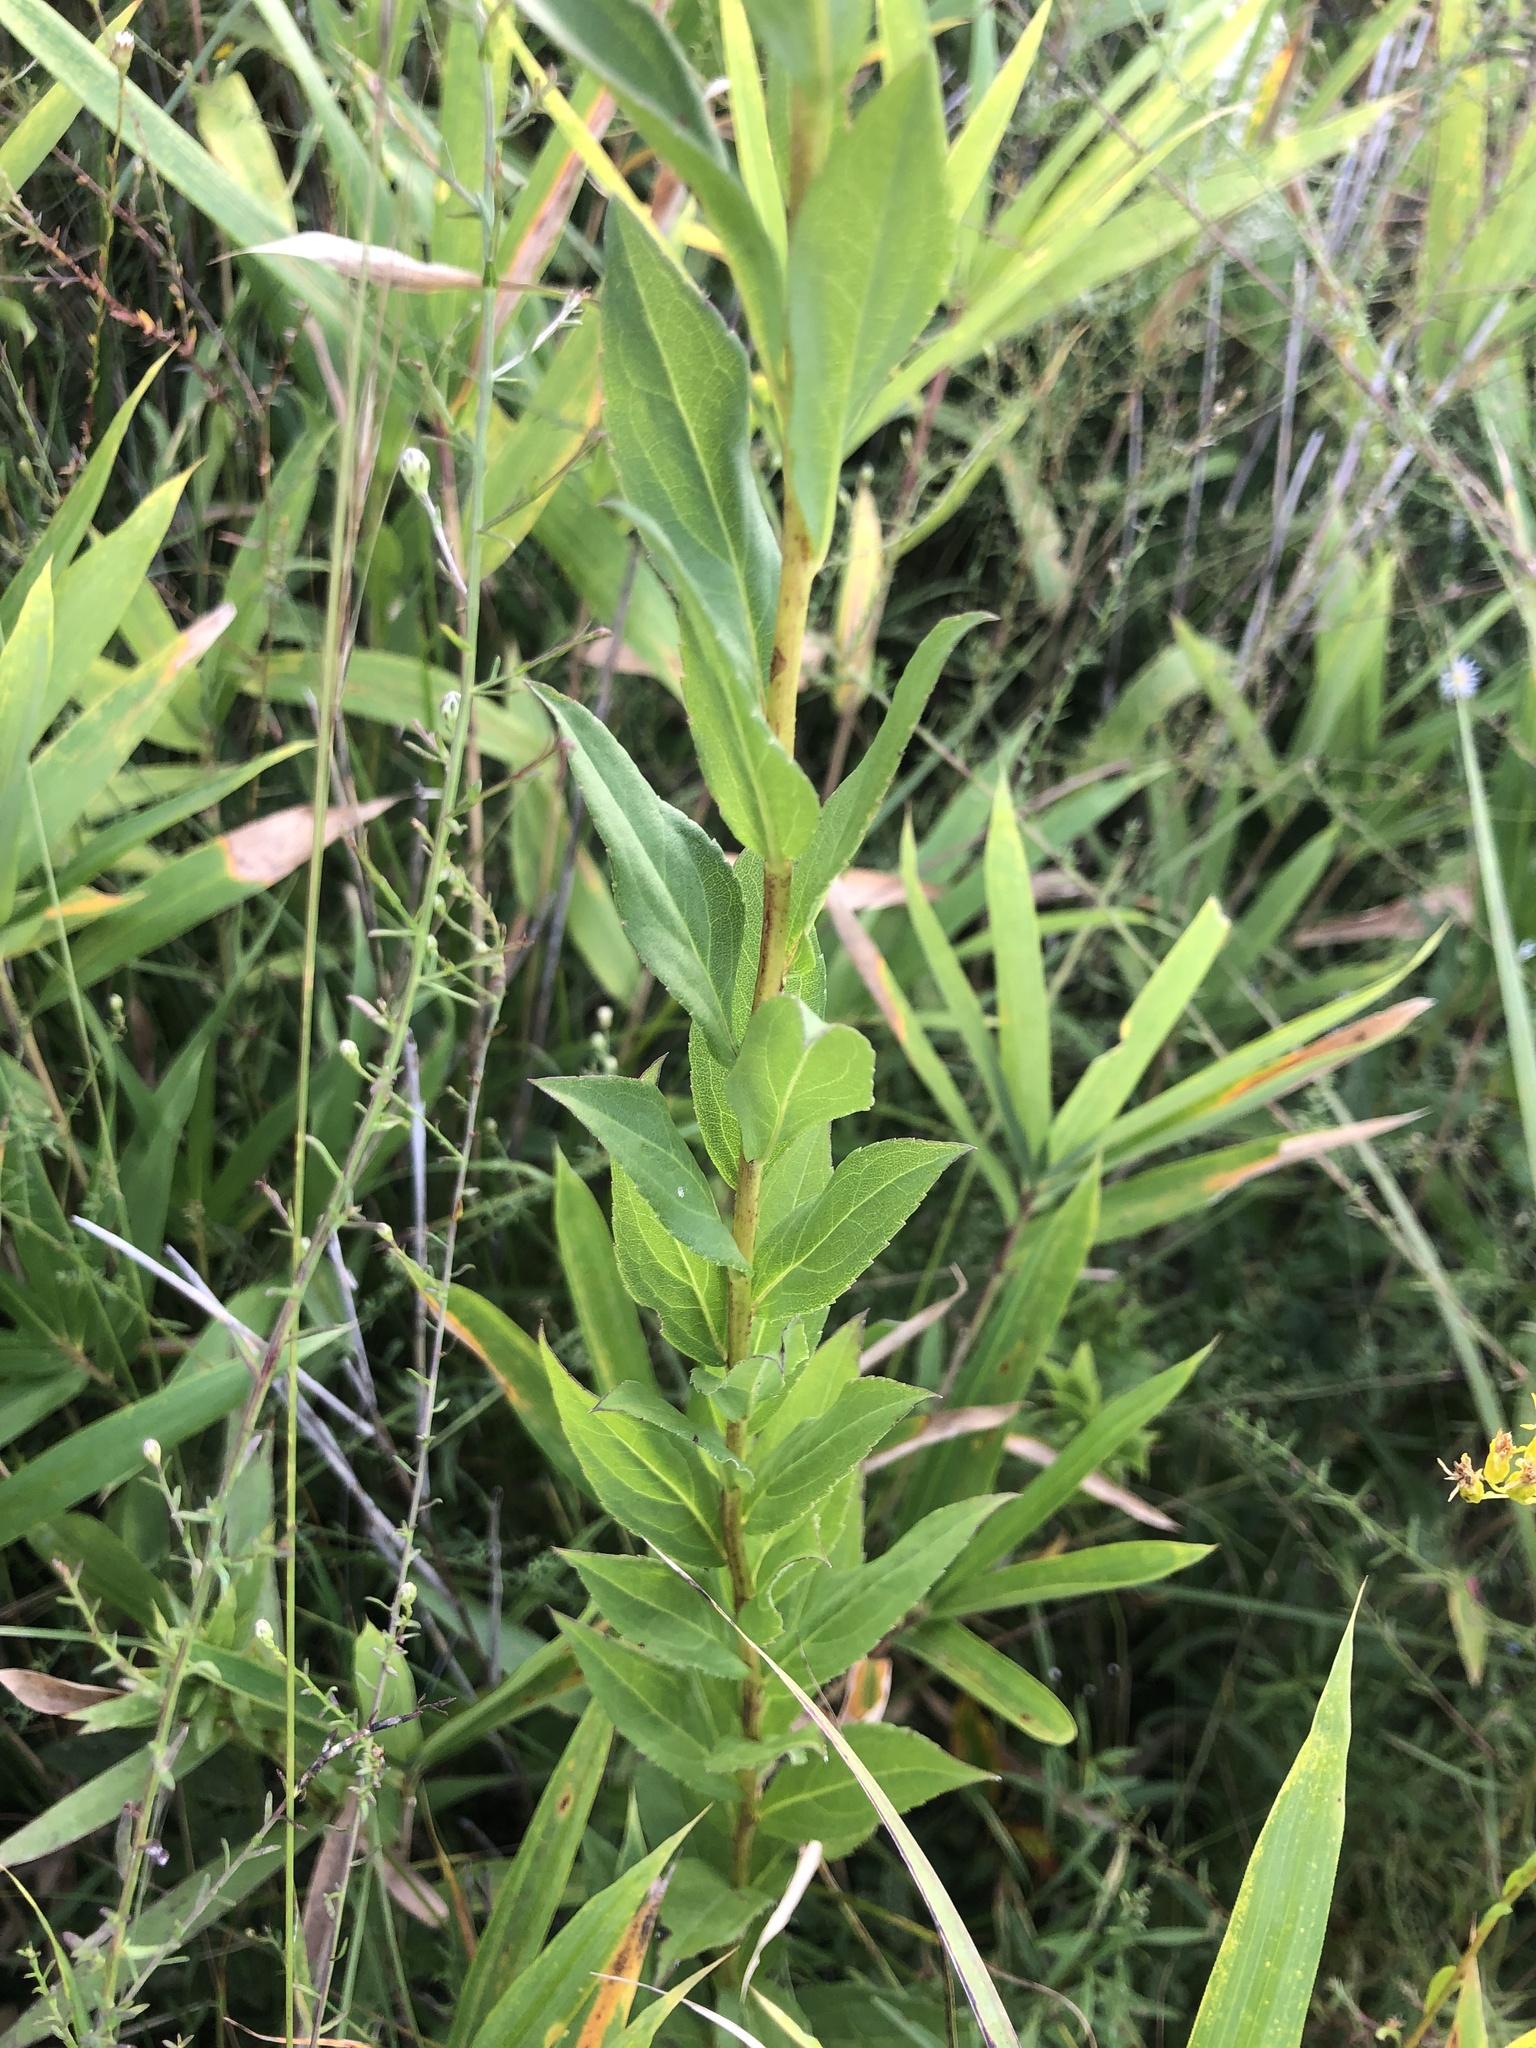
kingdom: Plantae
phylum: Tracheophyta
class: Magnoliopsida
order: Asterales
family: Asteraceae
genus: Solidago
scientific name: Solidago latissimifolia
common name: Elliott's goldenrod
